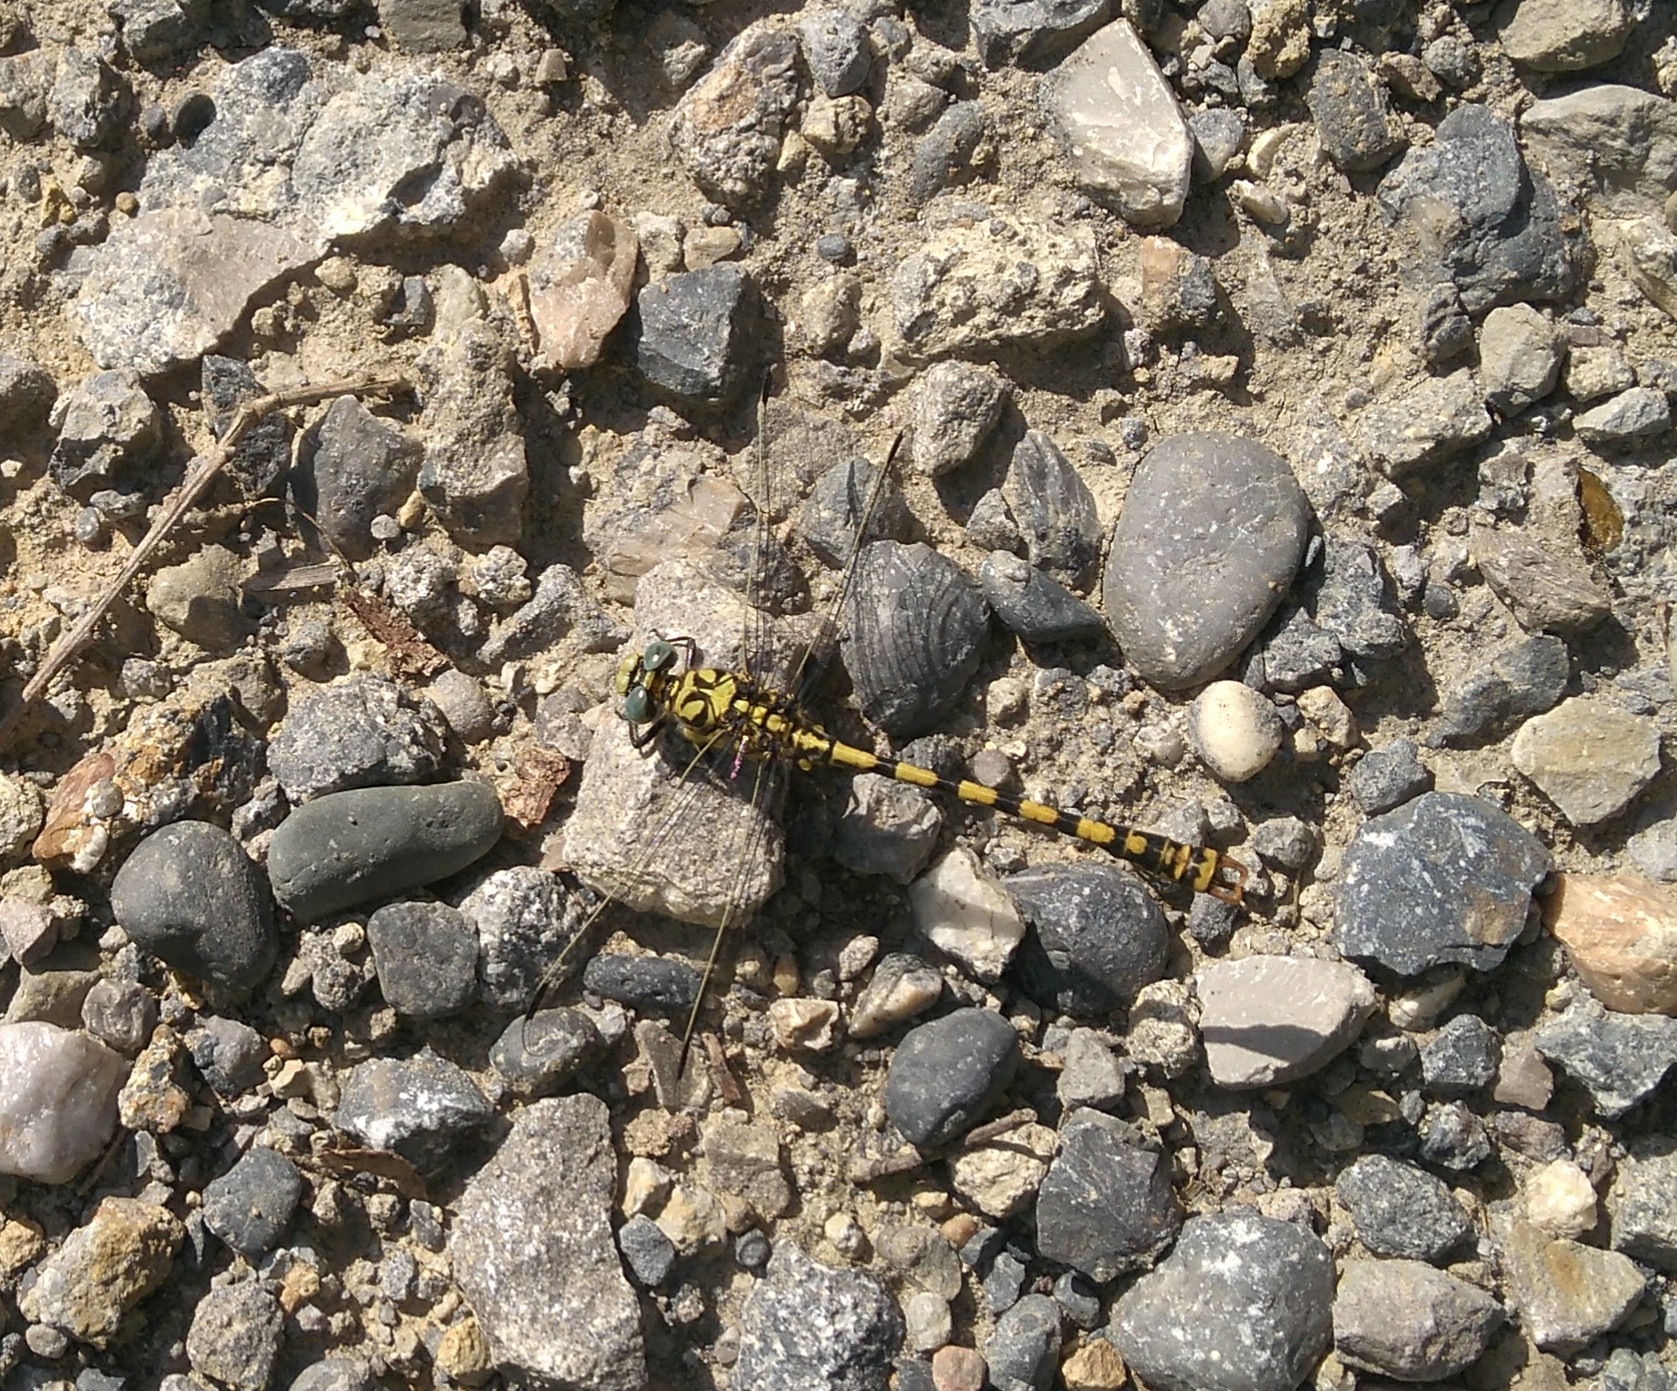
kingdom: Animalia
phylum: Arthropoda
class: Insecta
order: Odonata
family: Gomphidae
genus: Onychogomphus
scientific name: Onychogomphus forcipatus
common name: Small pincertail
